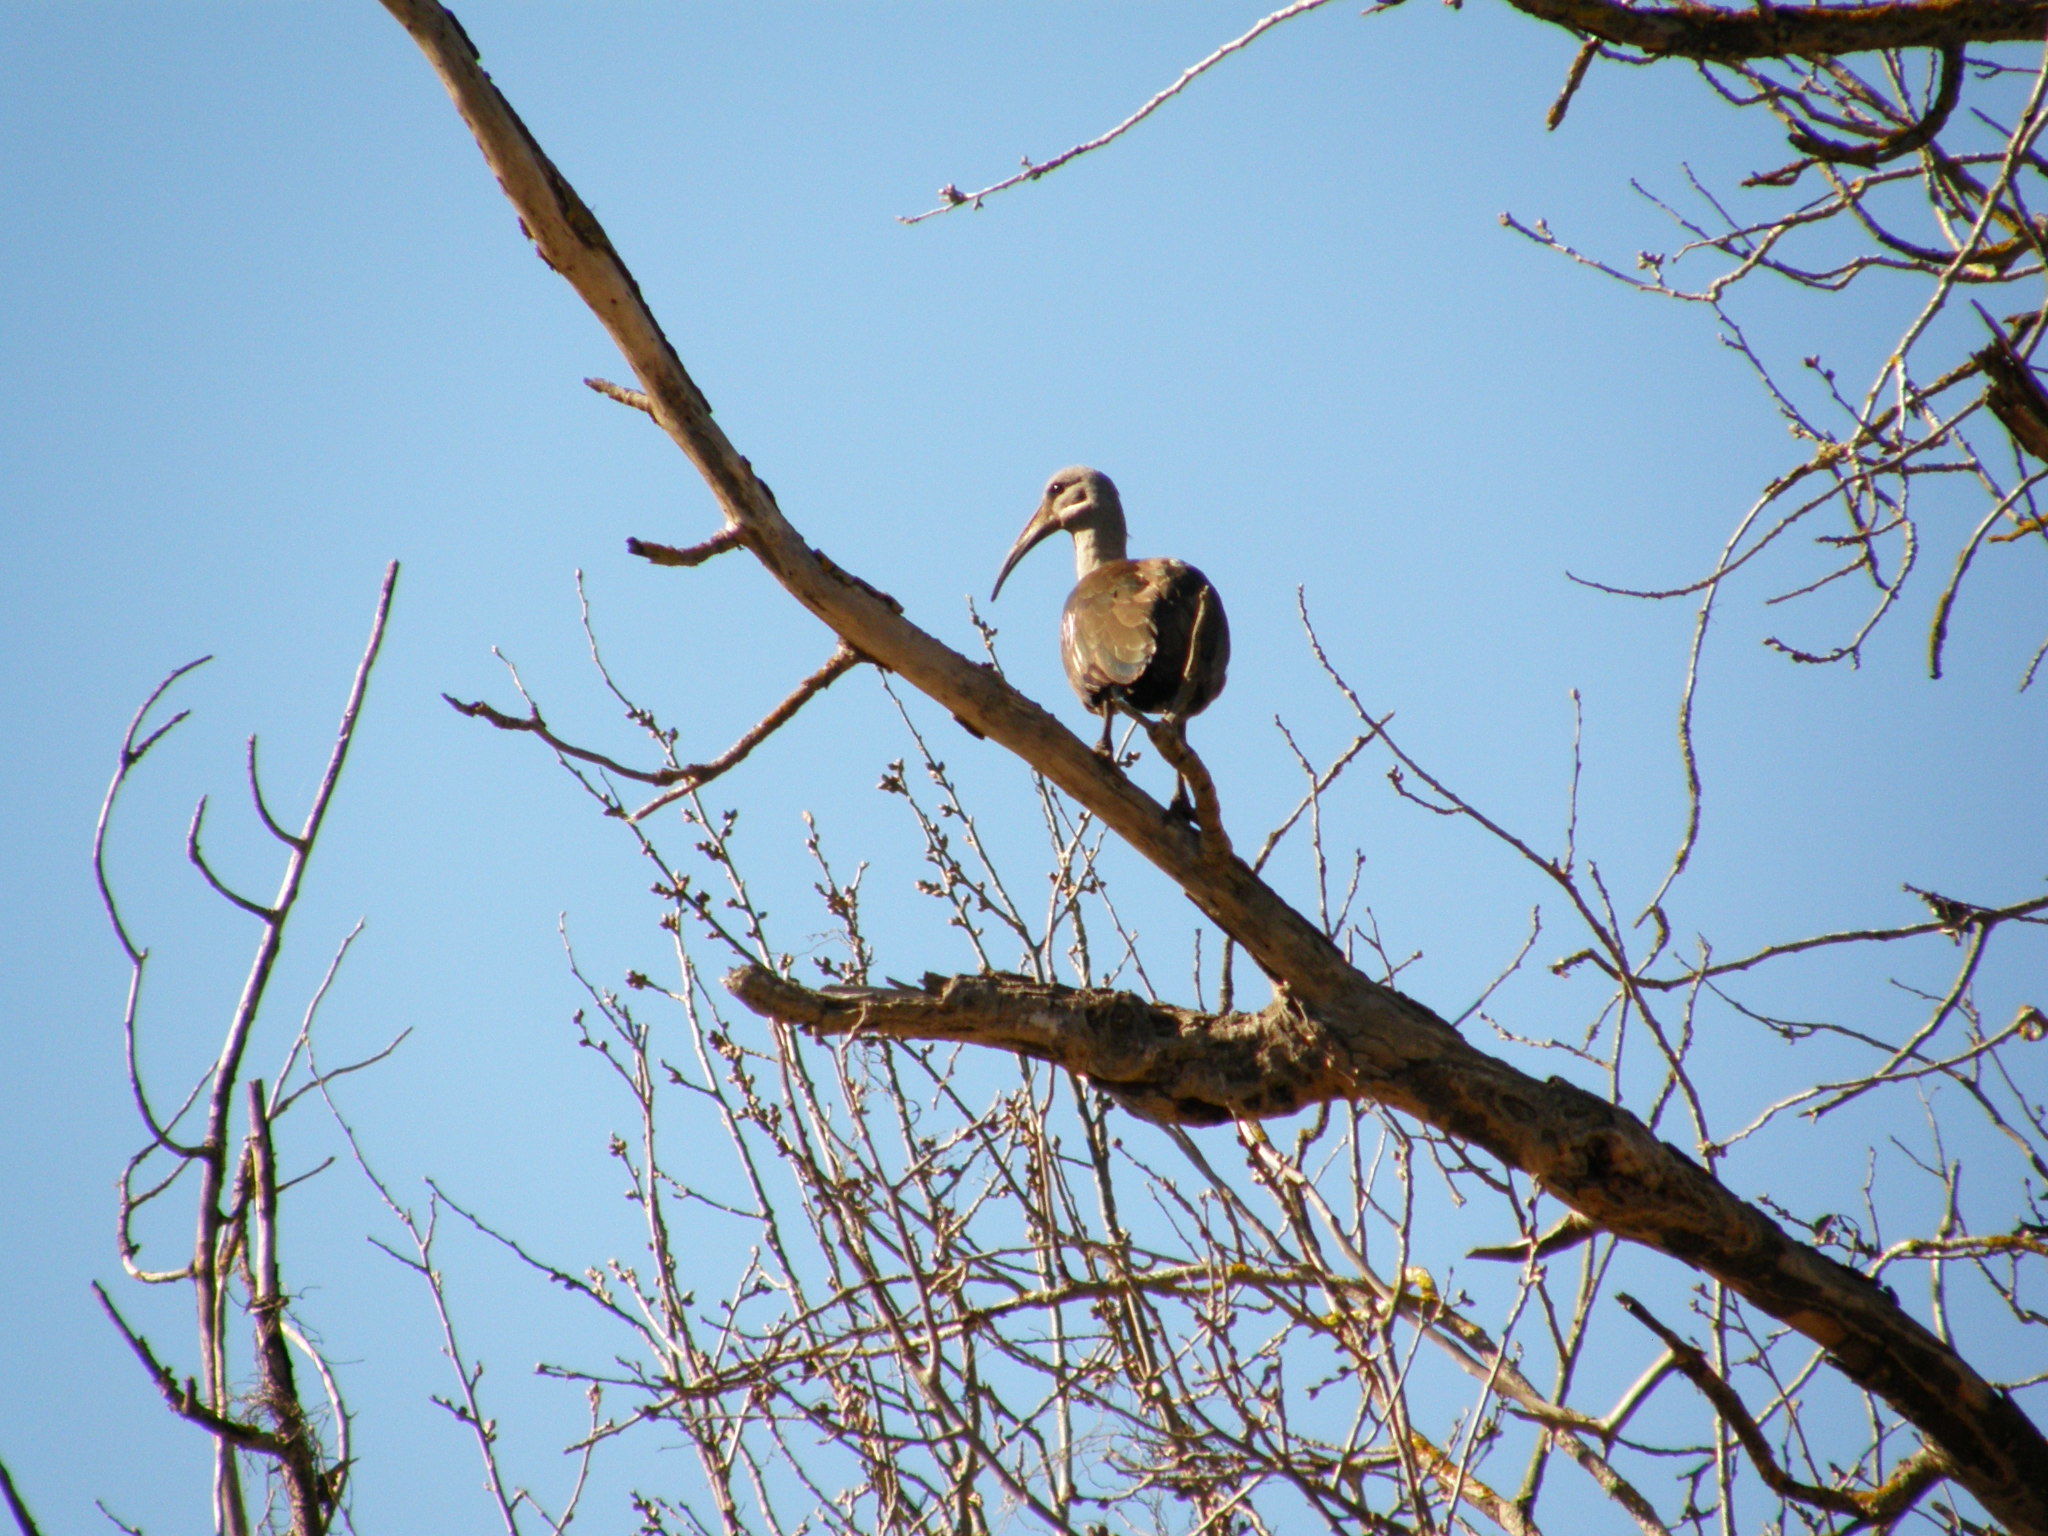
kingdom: Animalia
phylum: Chordata
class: Aves
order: Pelecaniformes
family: Threskiornithidae
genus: Bostrychia
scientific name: Bostrychia hagedash
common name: Hadada ibis
